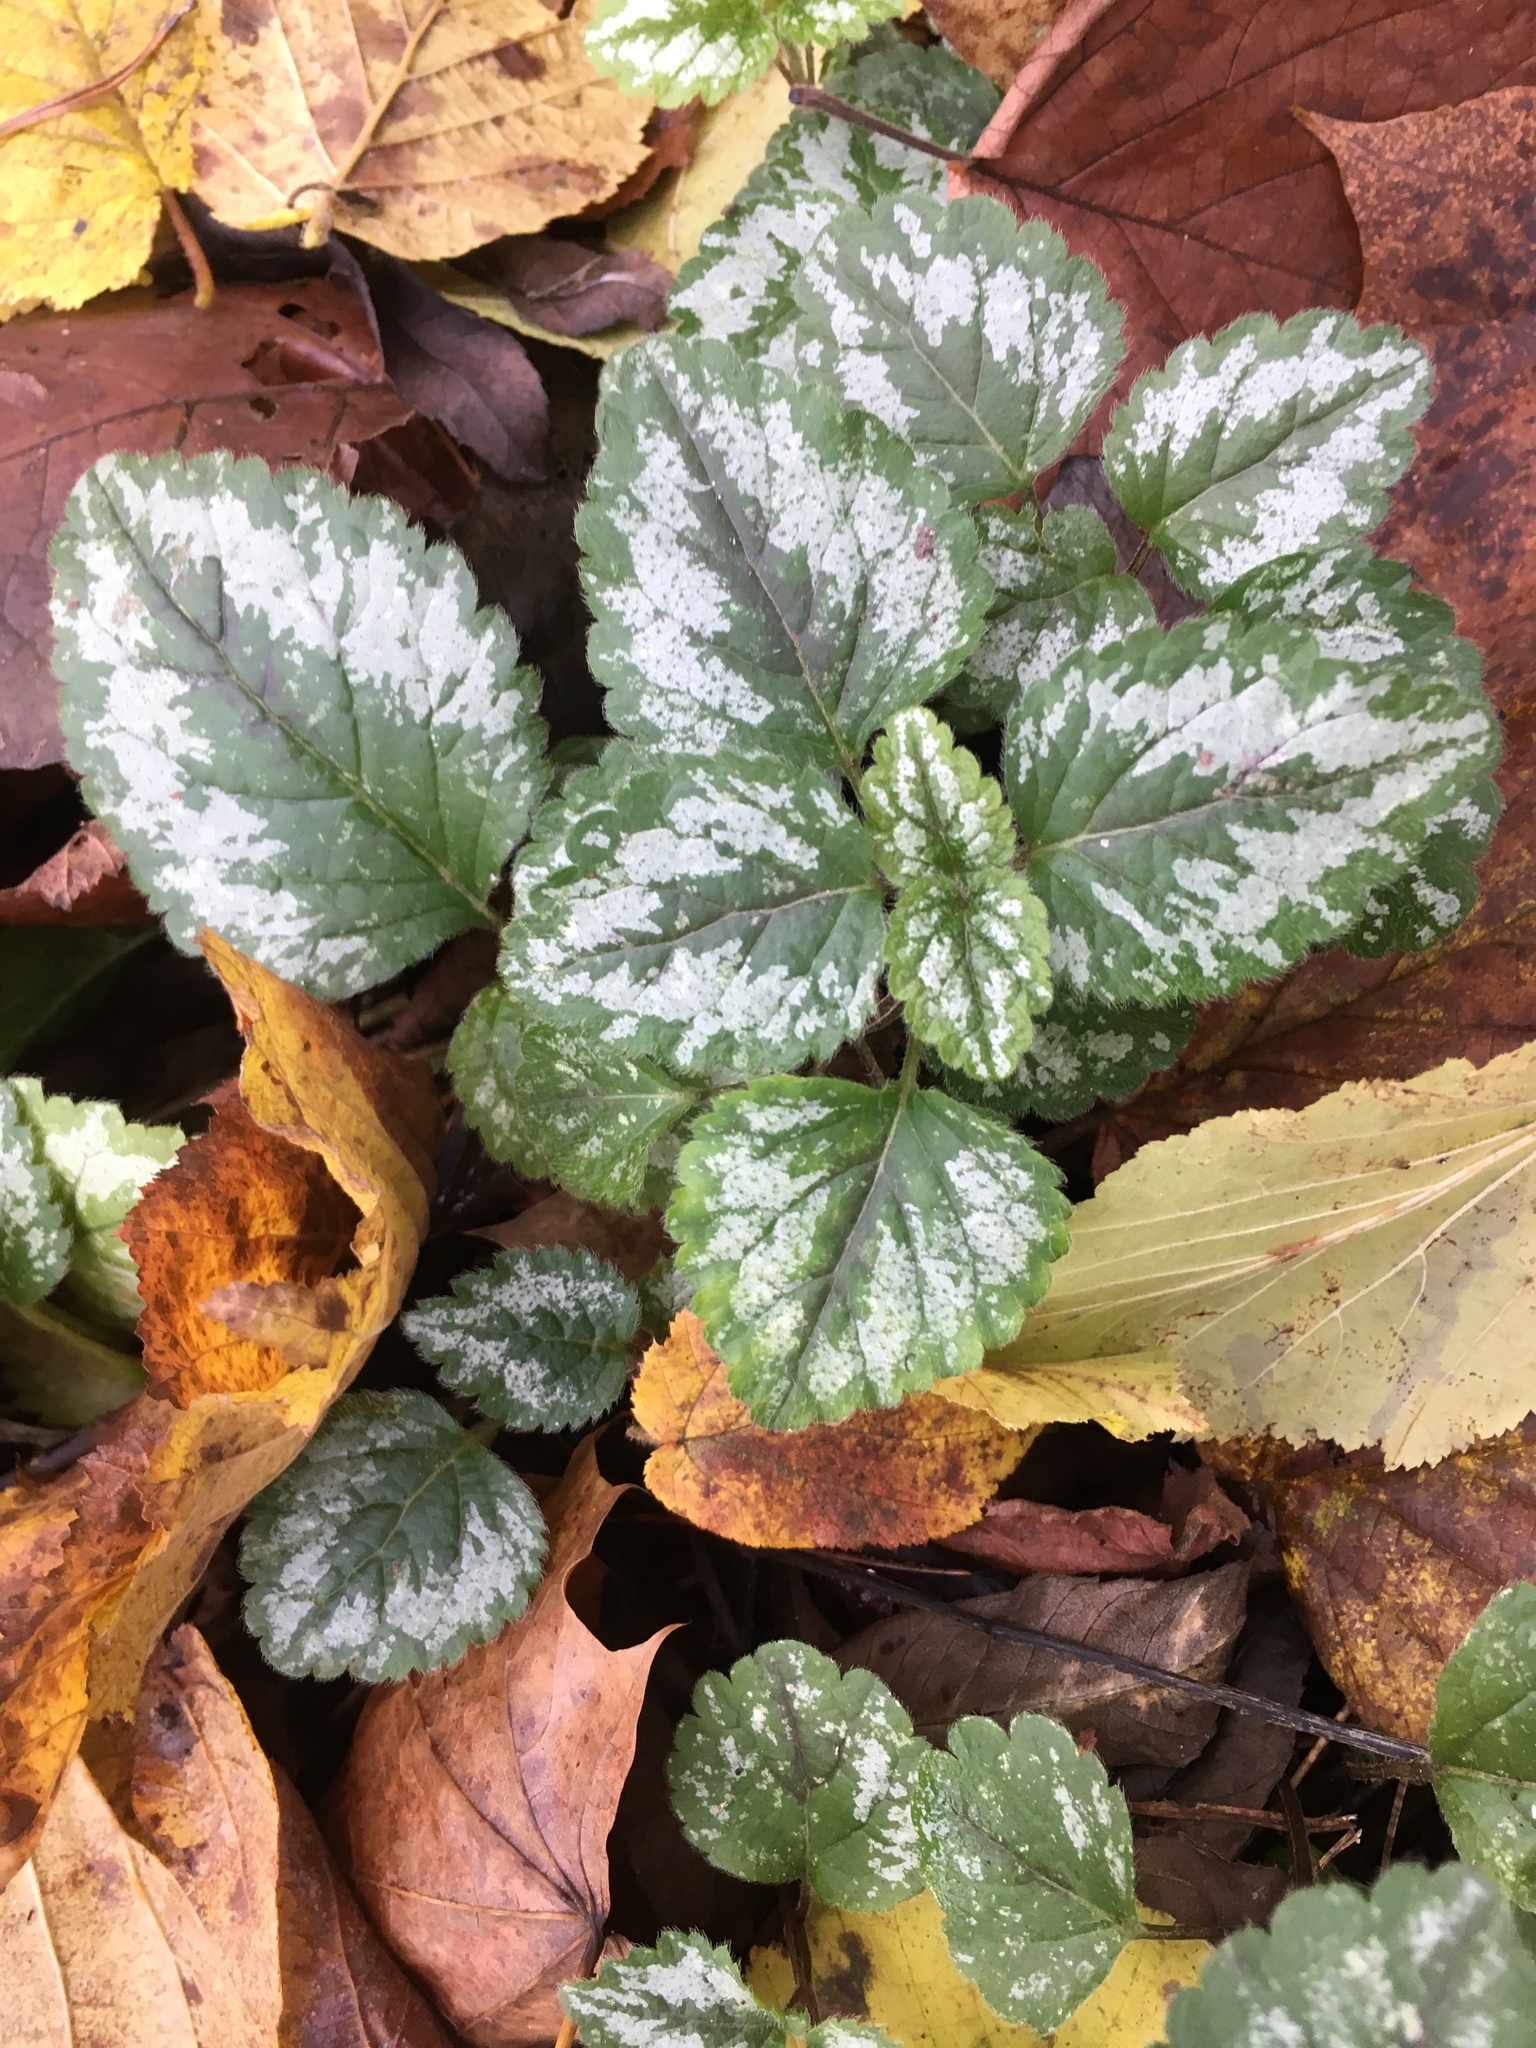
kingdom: Plantae
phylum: Tracheophyta
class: Magnoliopsida
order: Lamiales
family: Lamiaceae
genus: Lamium
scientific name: Lamium galeobdolon
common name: Yellow archangel
